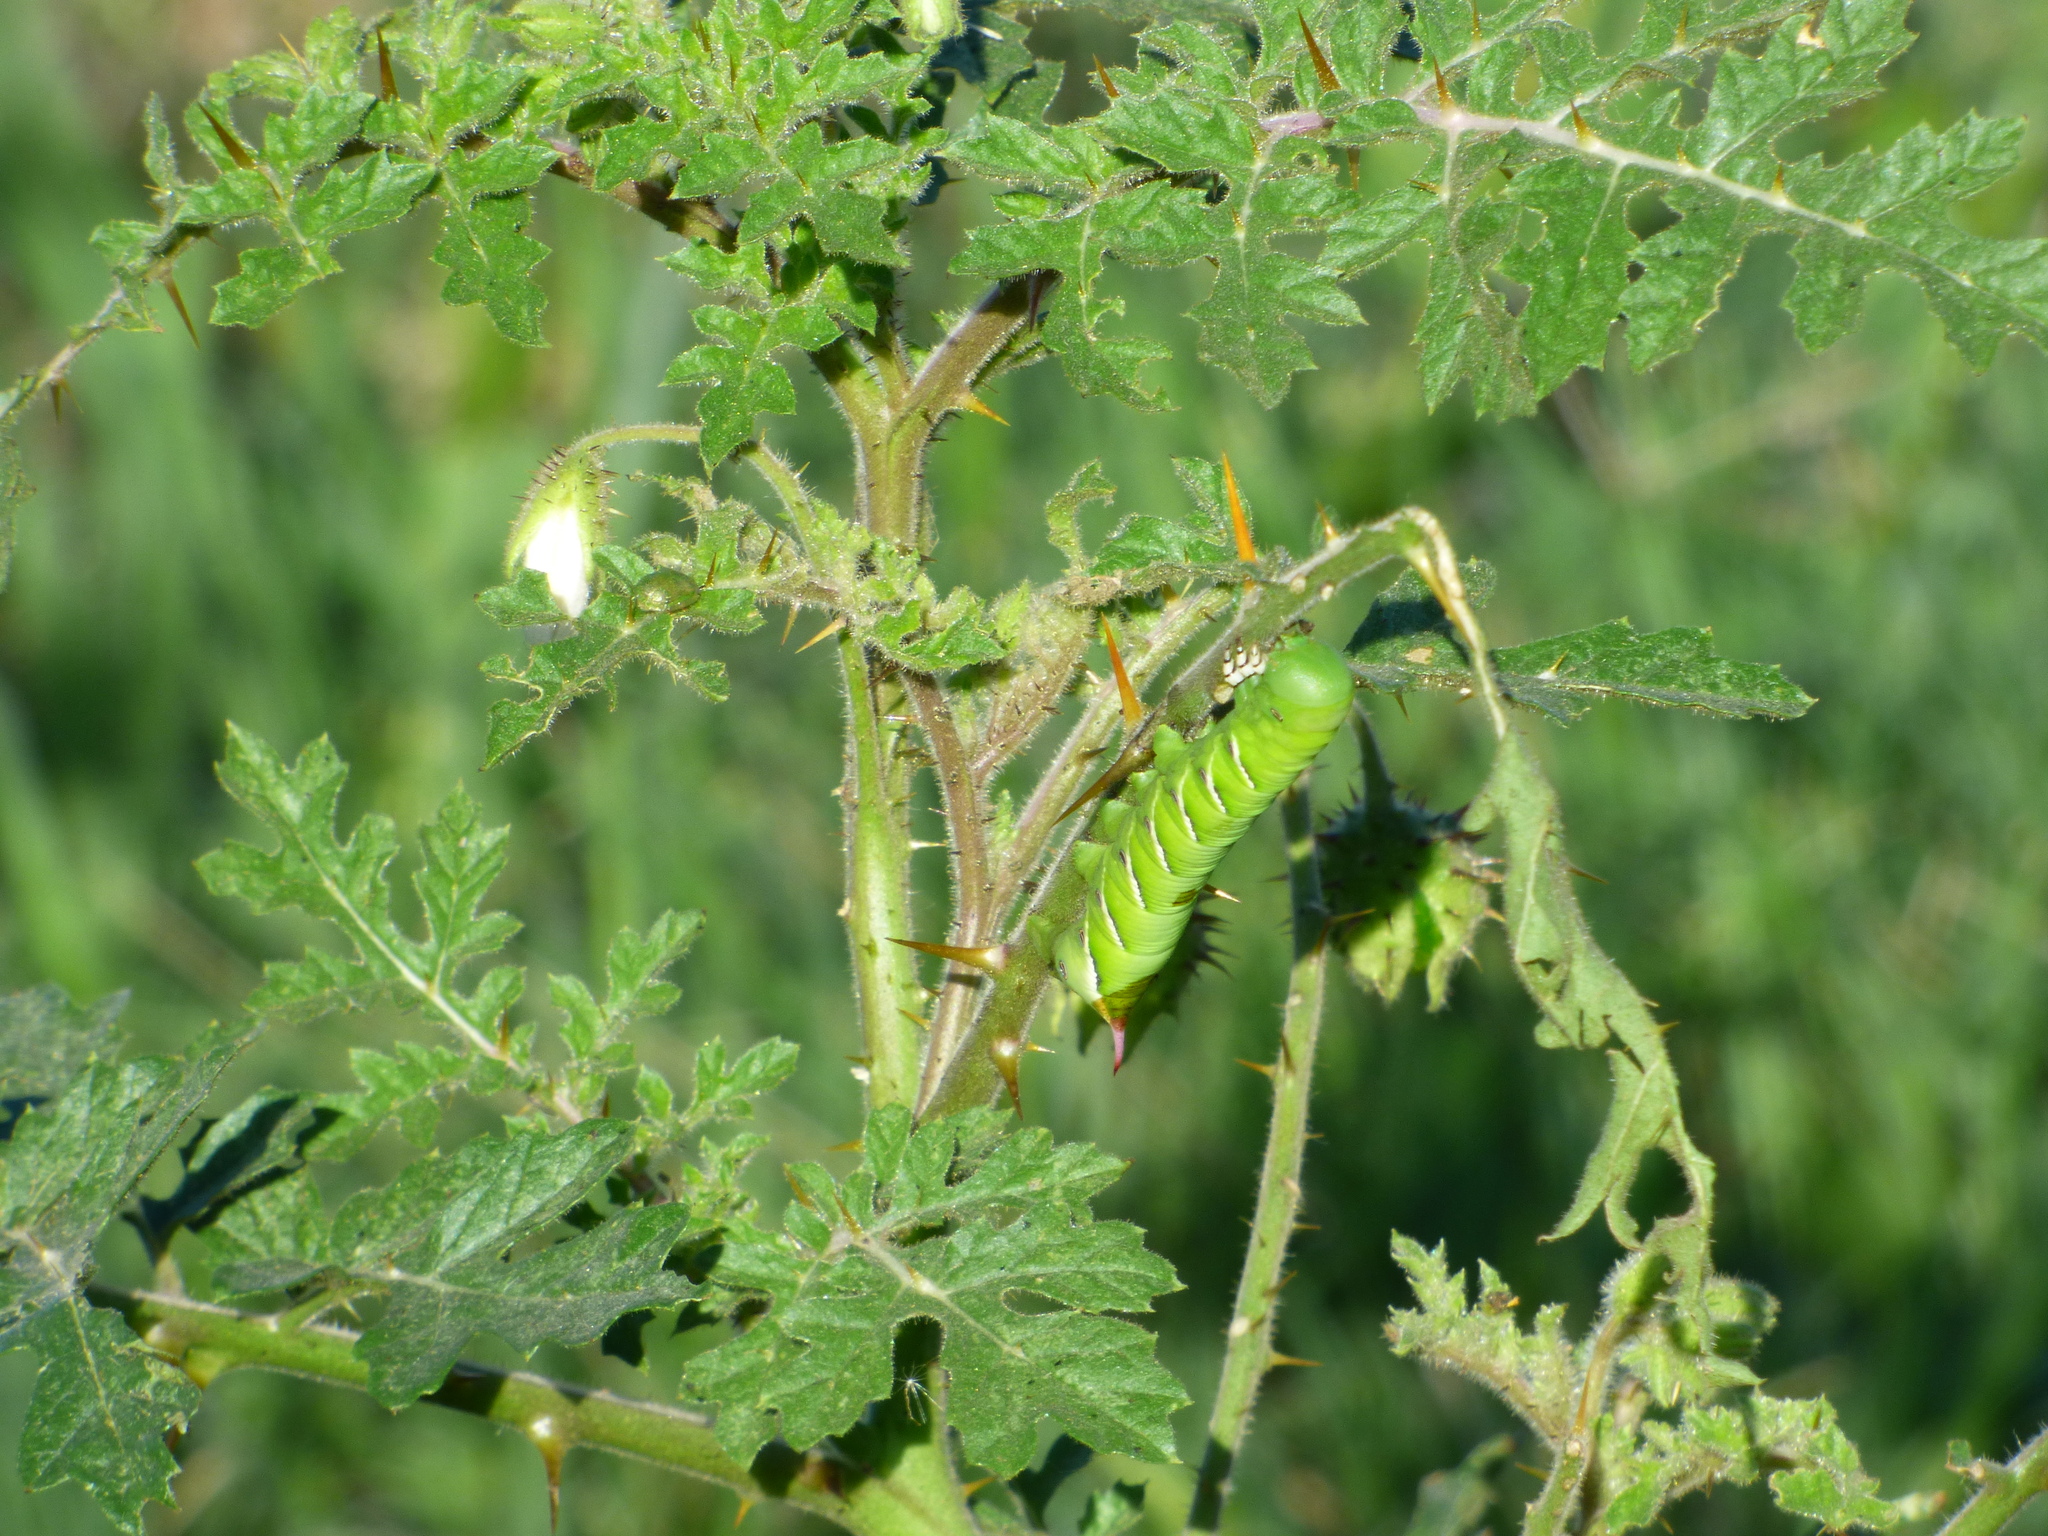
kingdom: Animalia
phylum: Arthropoda
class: Insecta
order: Lepidoptera
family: Sphingidae
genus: Manduca
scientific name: Manduca afflicta
